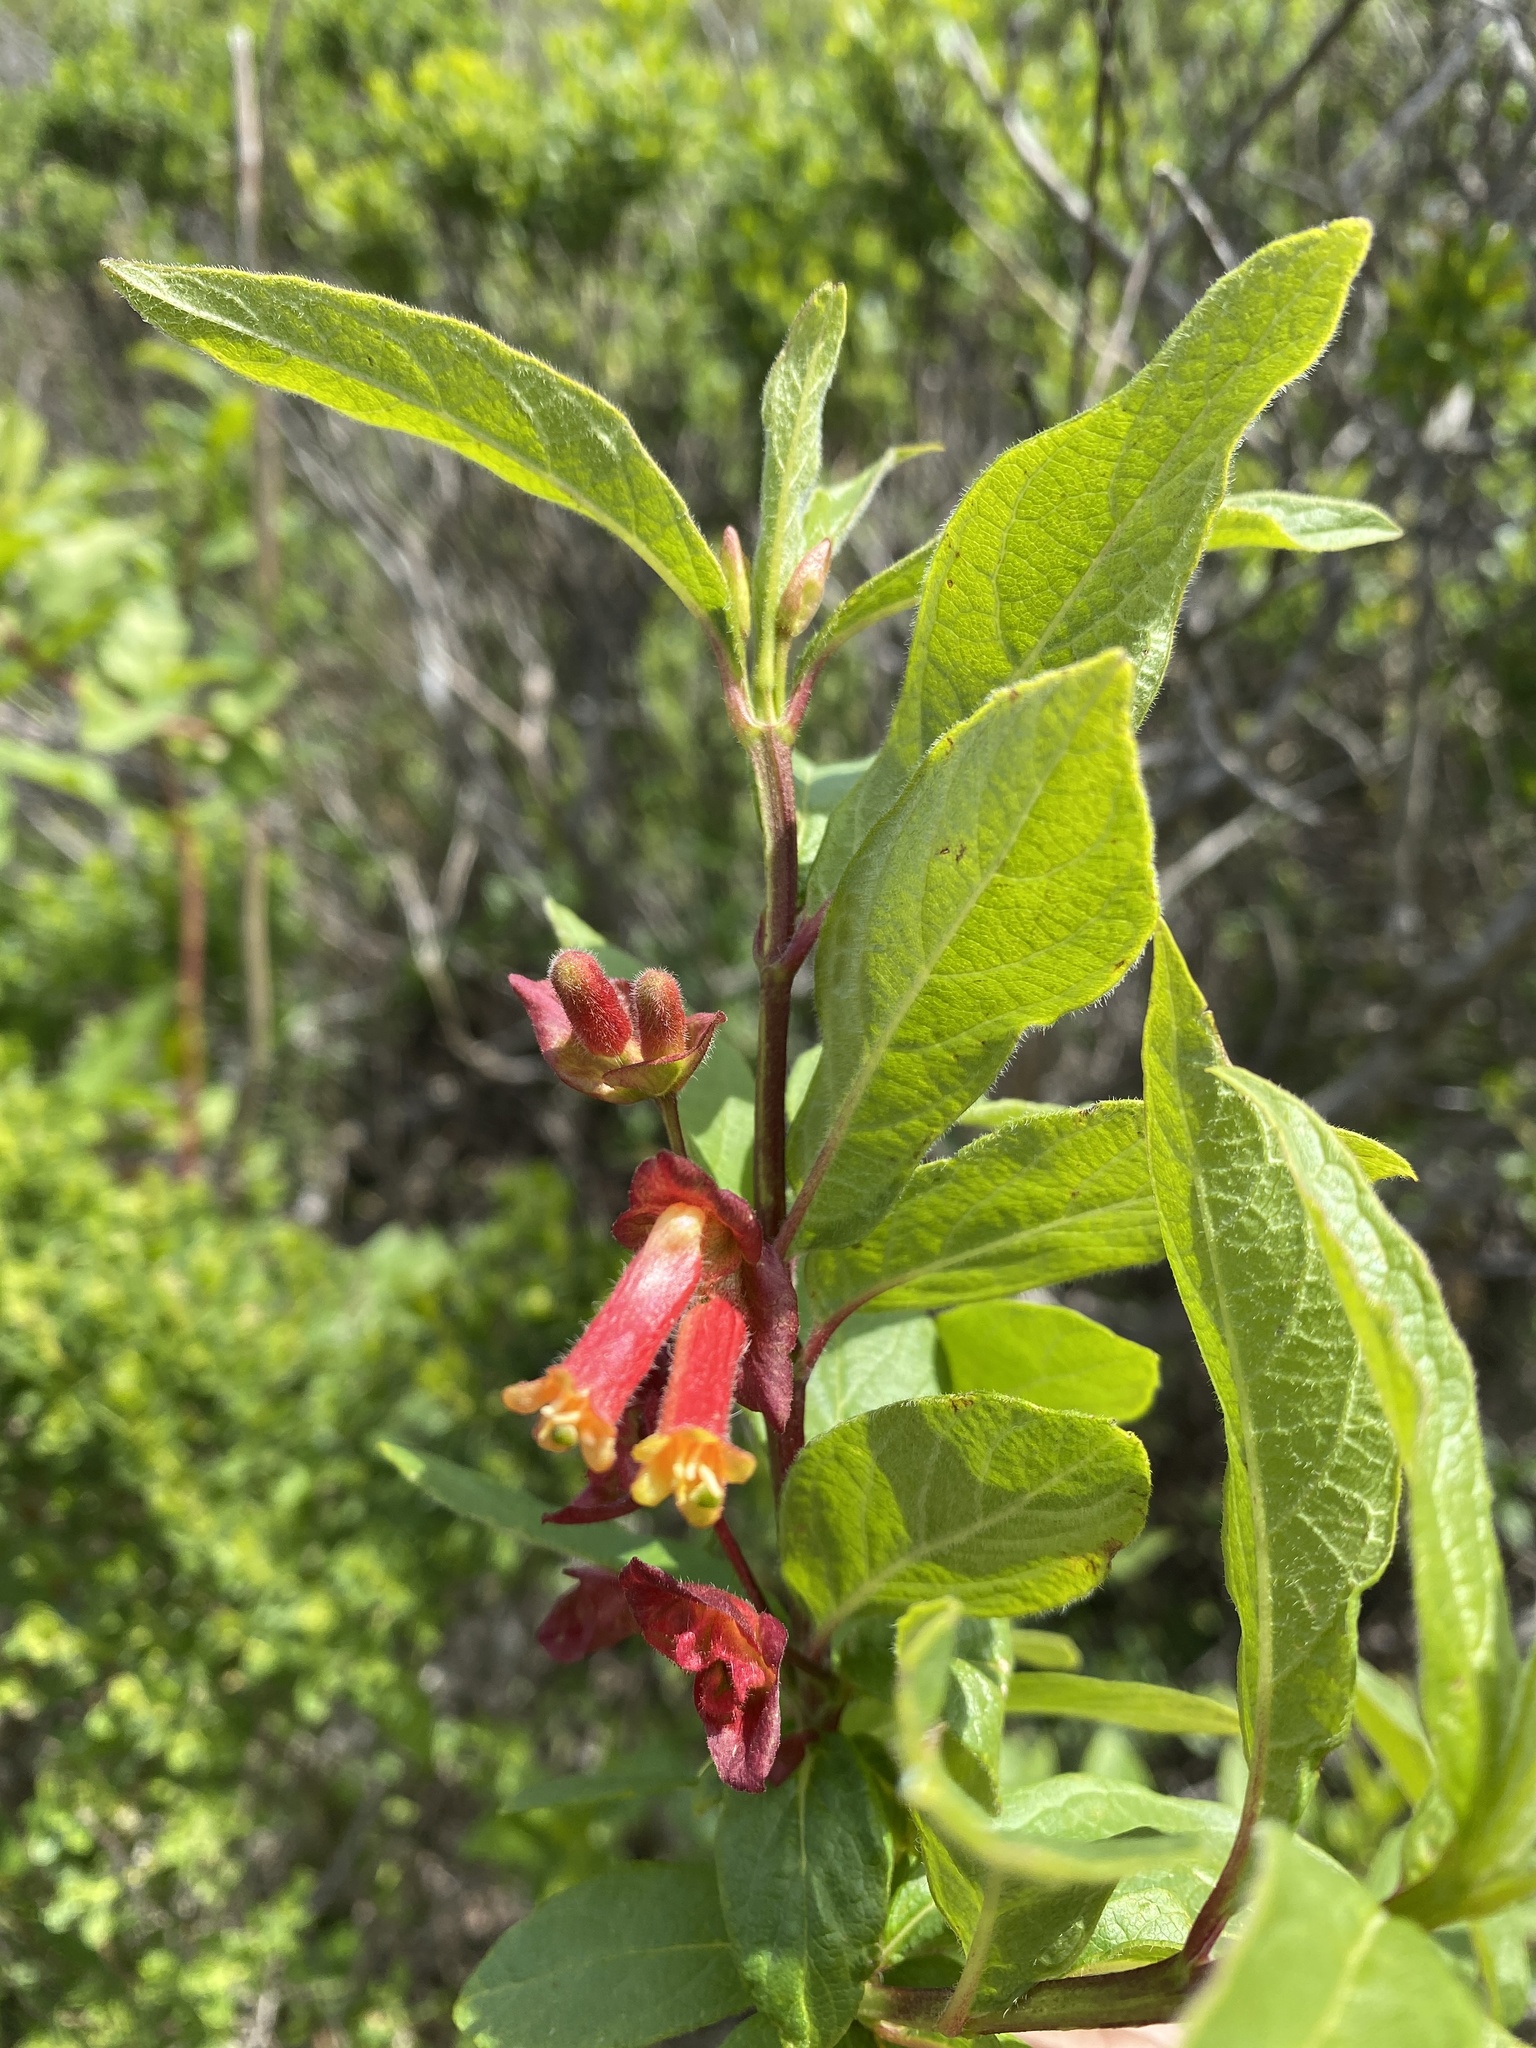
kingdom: Plantae
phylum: Tracheophyta
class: Magnoliopsida
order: Dipsacales
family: Caprifoliaceae
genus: Lonicera
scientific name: Lonicera involucrata
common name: Californian honeysuckle
